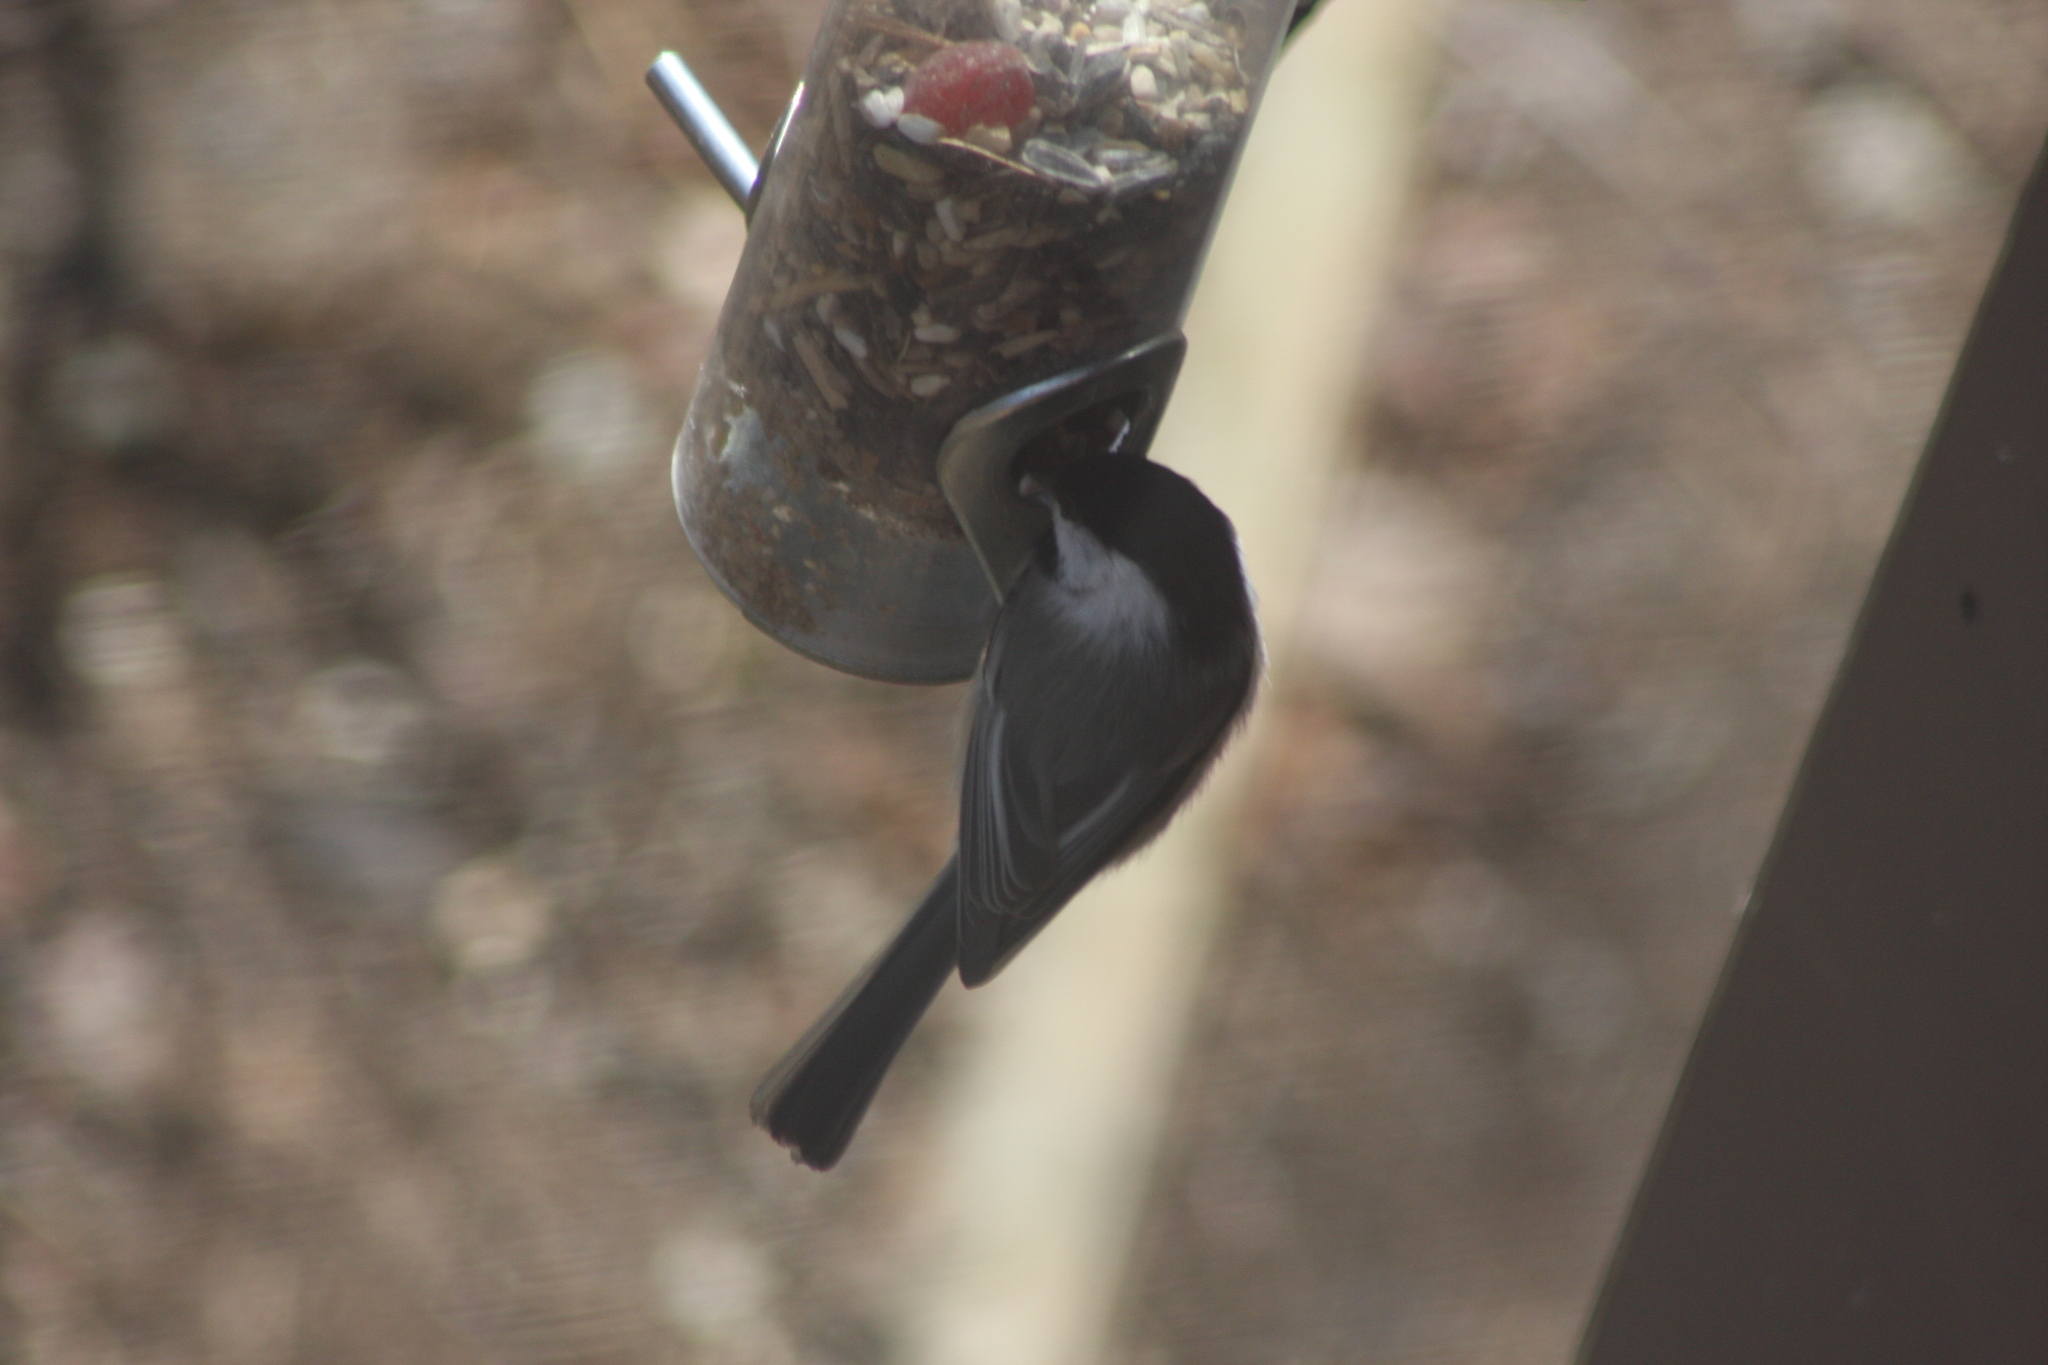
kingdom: Animalia
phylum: Chordata
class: Aves
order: Passeriformes
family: Paridae
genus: Poecile
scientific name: Poecile atricapillus
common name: Black-capped chickadee
